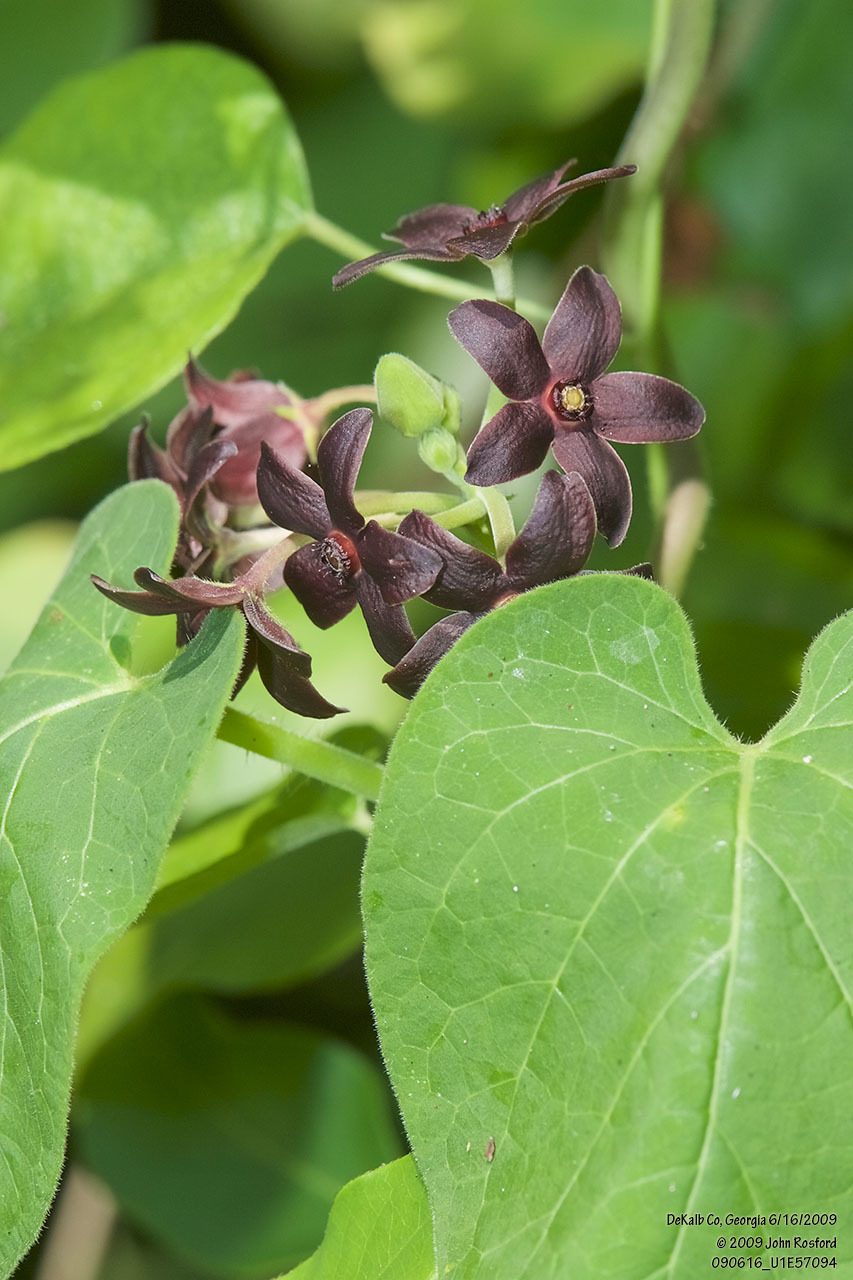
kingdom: Plantae
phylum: Tracheophyta
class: Magnoliopsida
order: Gentianales
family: Apocynaceae
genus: Matelea
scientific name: Matelea carolinensis
